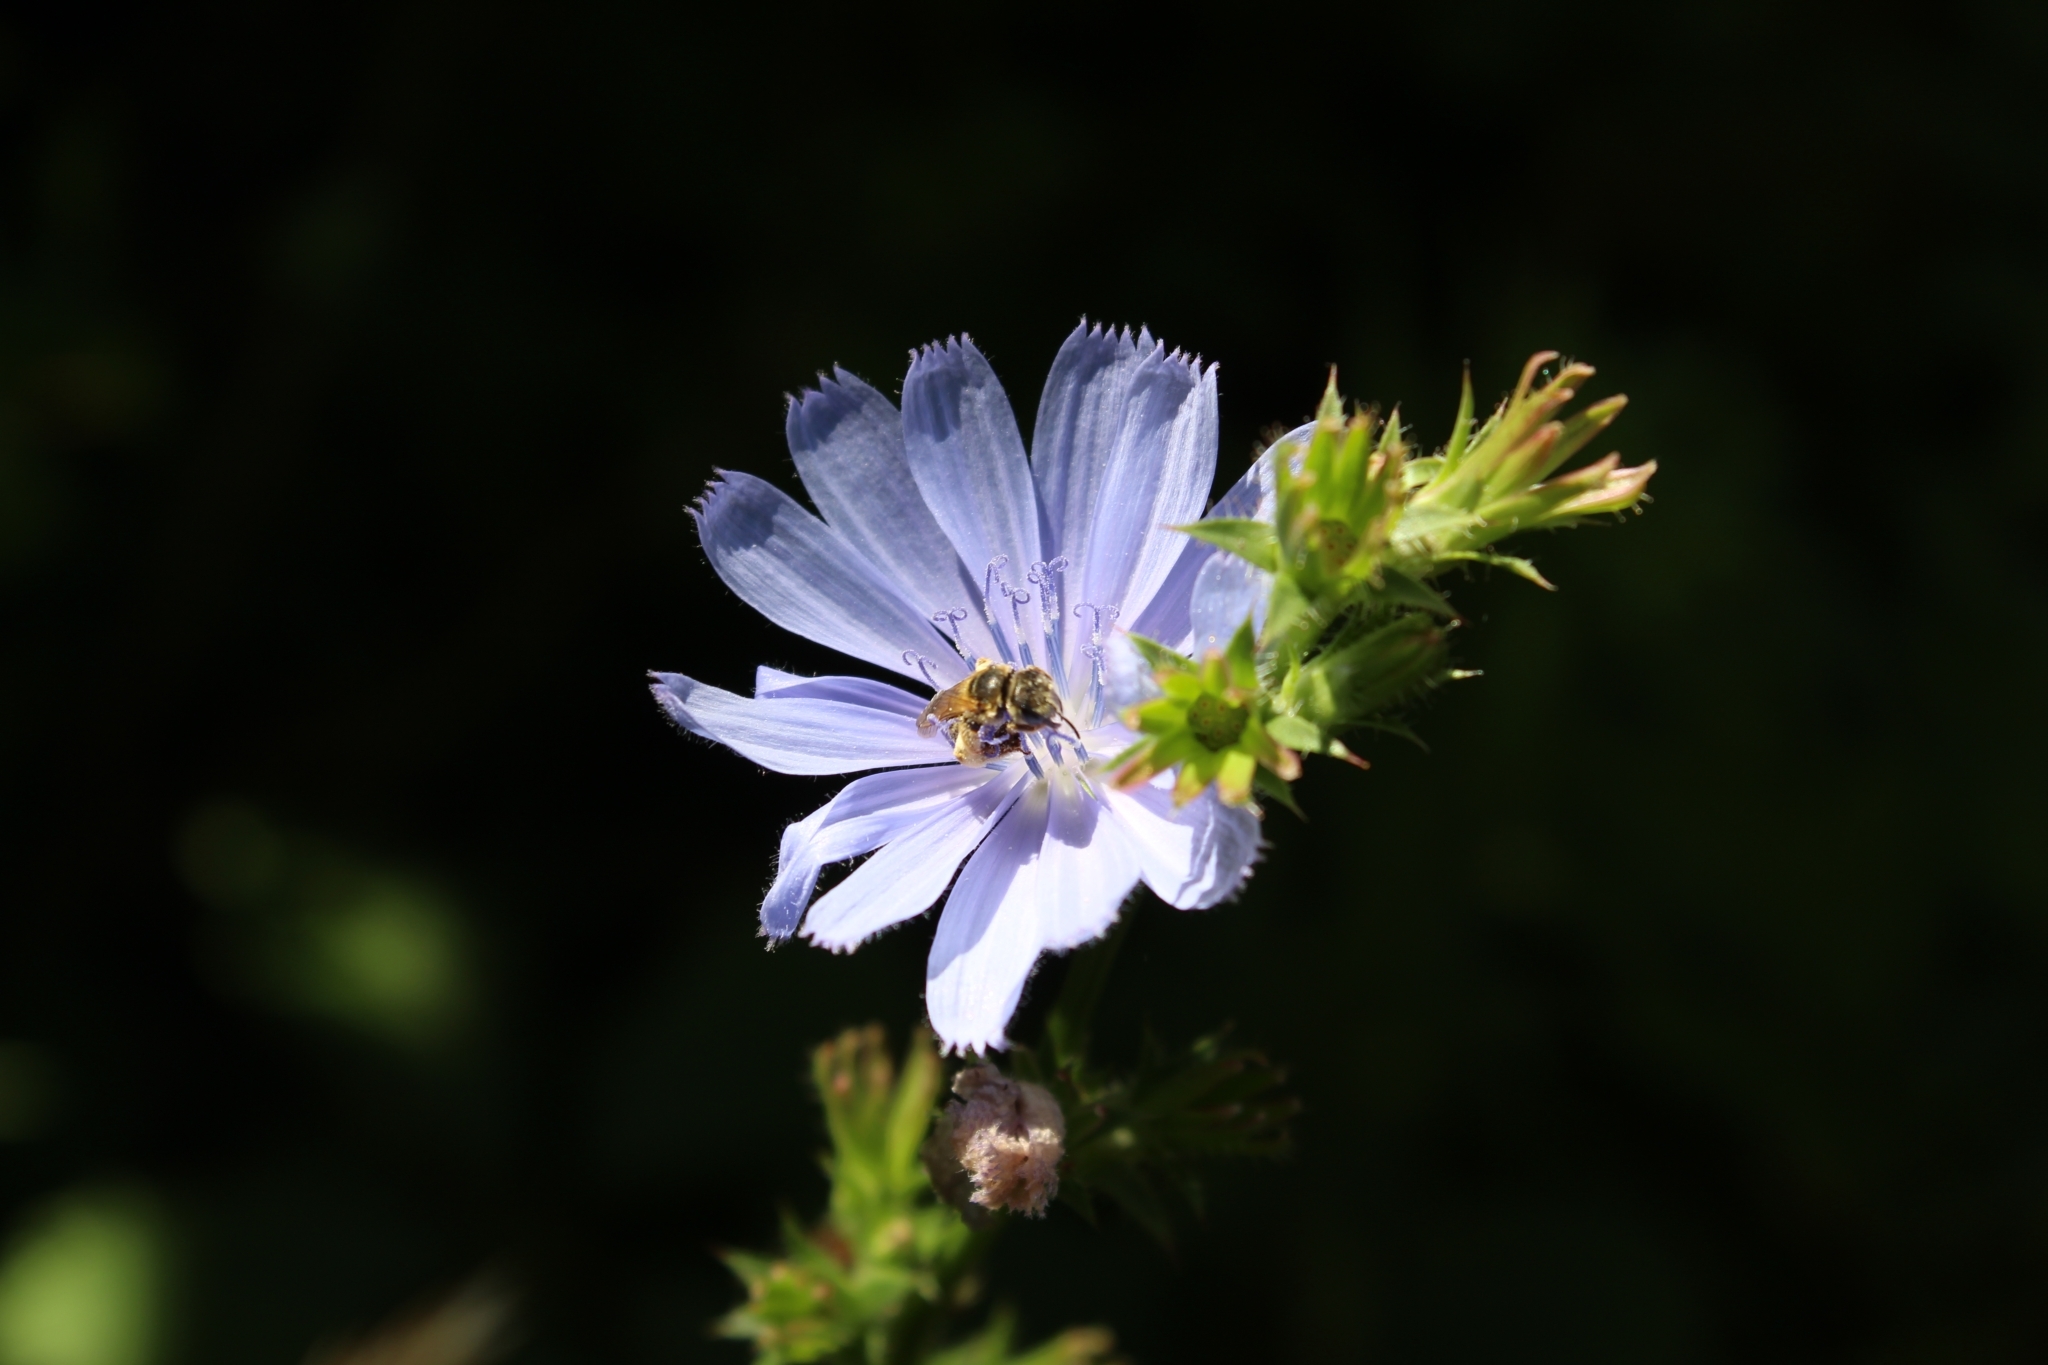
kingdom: Plantae
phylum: Tracheophyta
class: Magnoliopsida
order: Asterales
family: Asteraceae
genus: Cichorium
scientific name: Cichorium intybus
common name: Chicory
